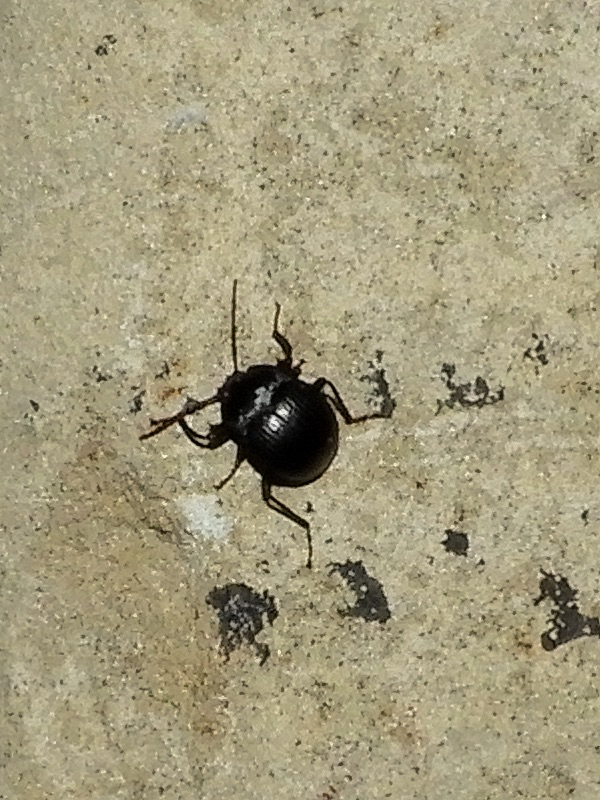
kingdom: Animalia
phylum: Arthropoda
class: Insecta
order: Coleoptera
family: Tenebrionidae
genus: Accanthopus
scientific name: Accanthopus velikensis
